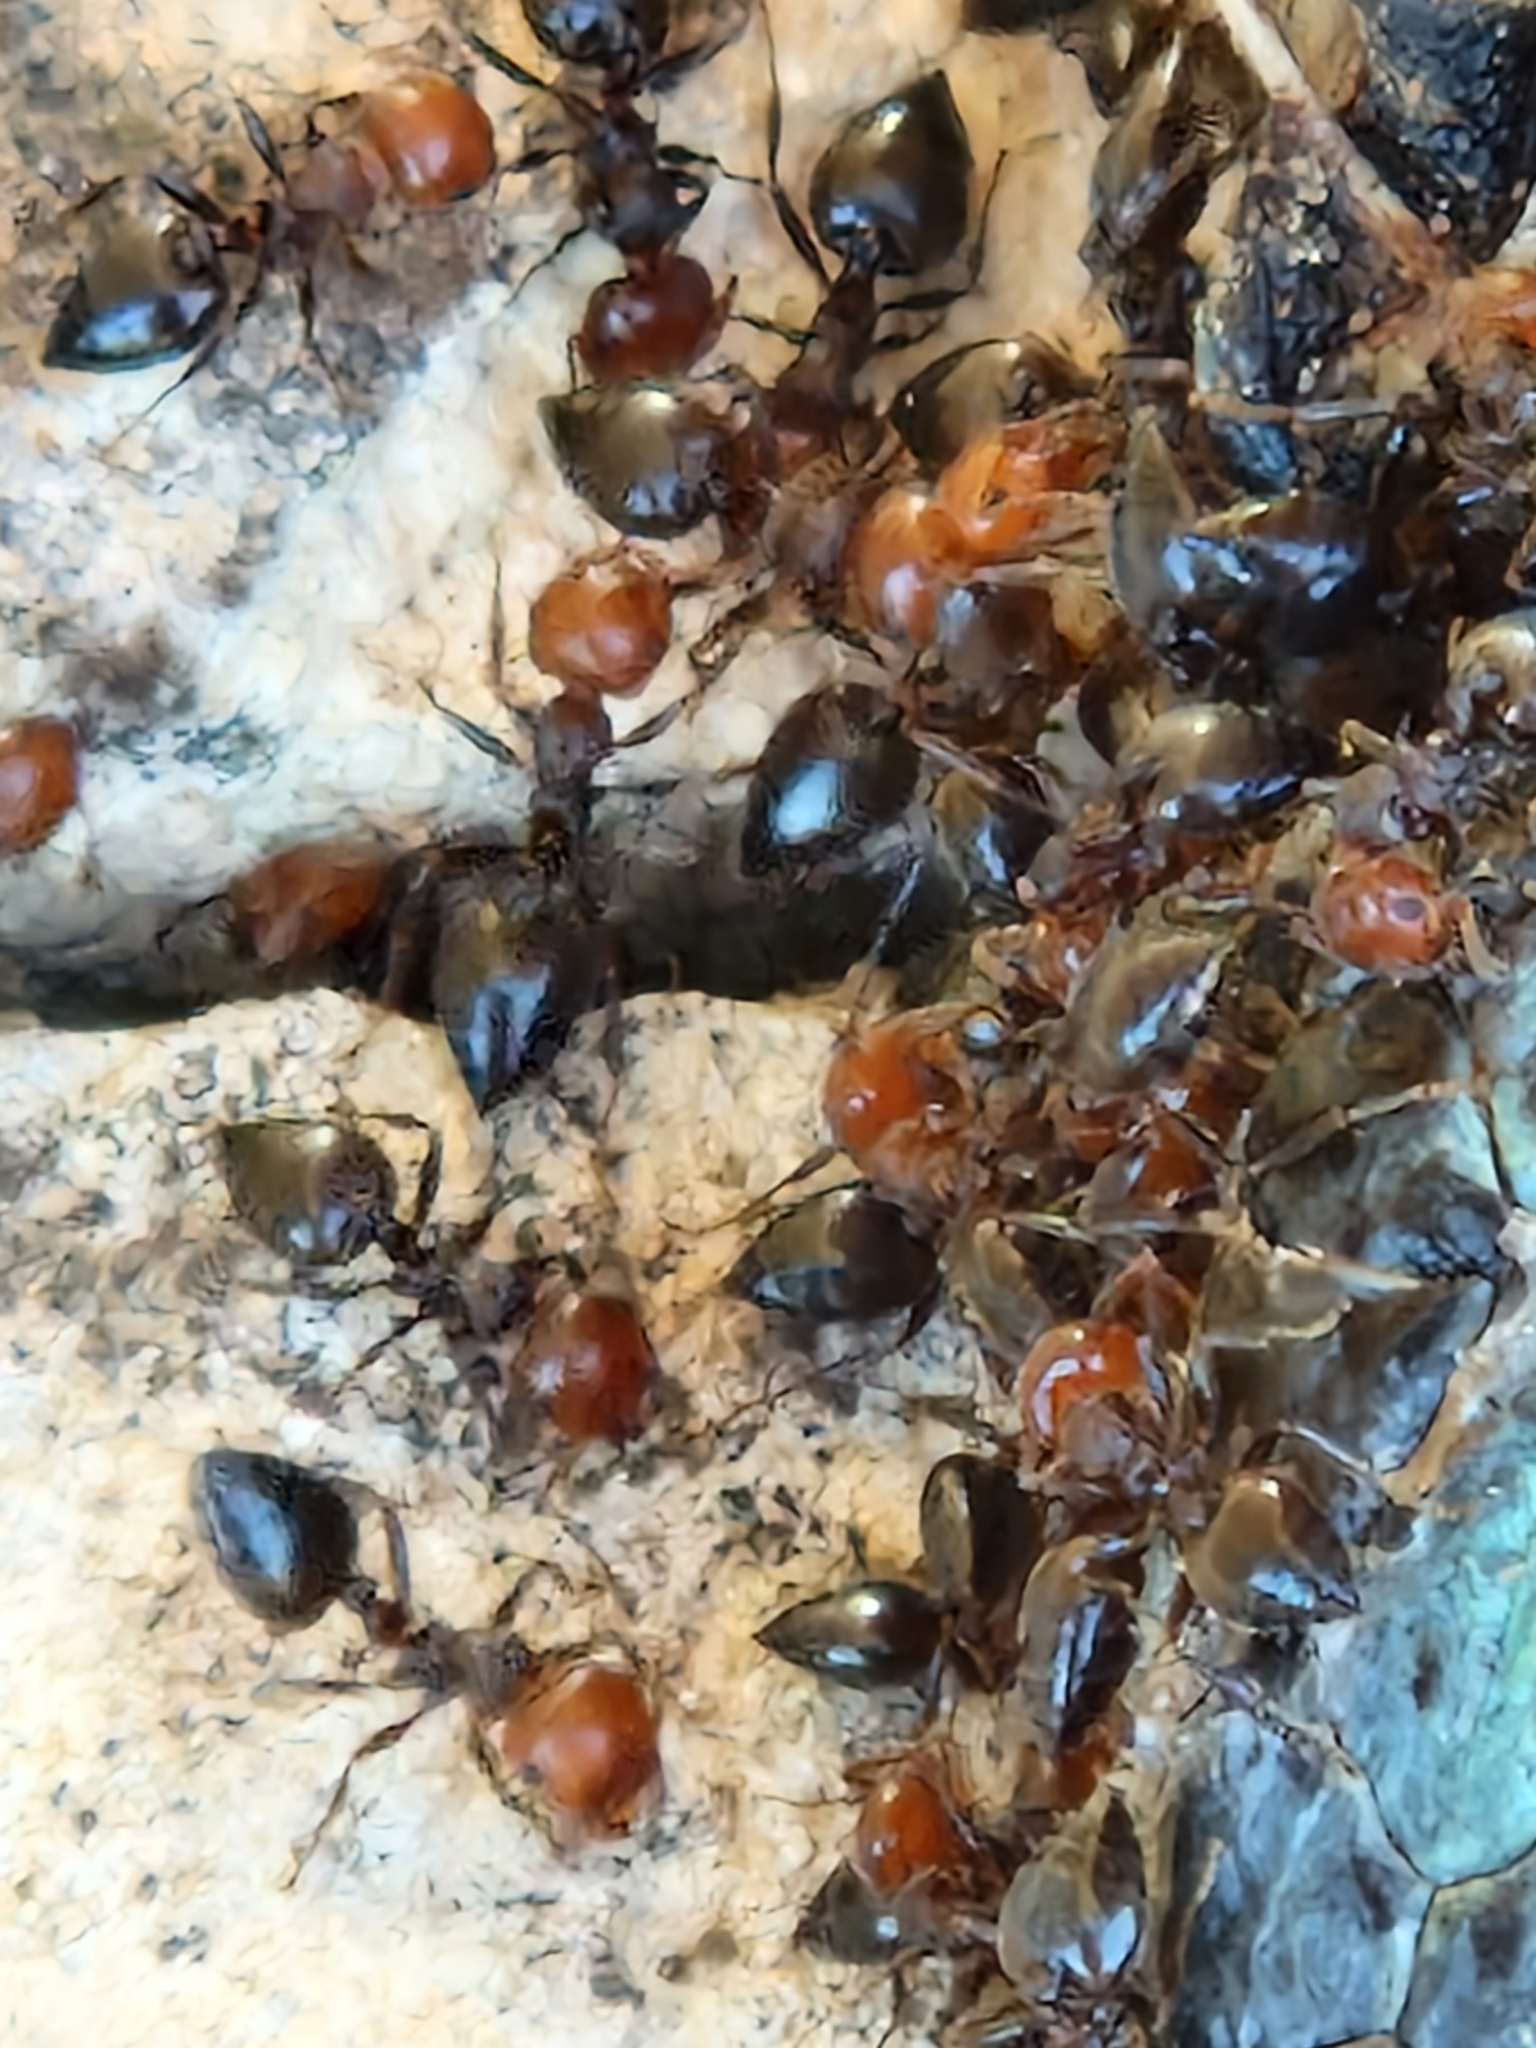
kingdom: Animalia
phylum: Arthropoda
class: Insecta
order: Hymenoptera
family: Formicidae
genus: Crematogaster
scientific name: Crematogaster scutellaris
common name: Fourmi du liège
